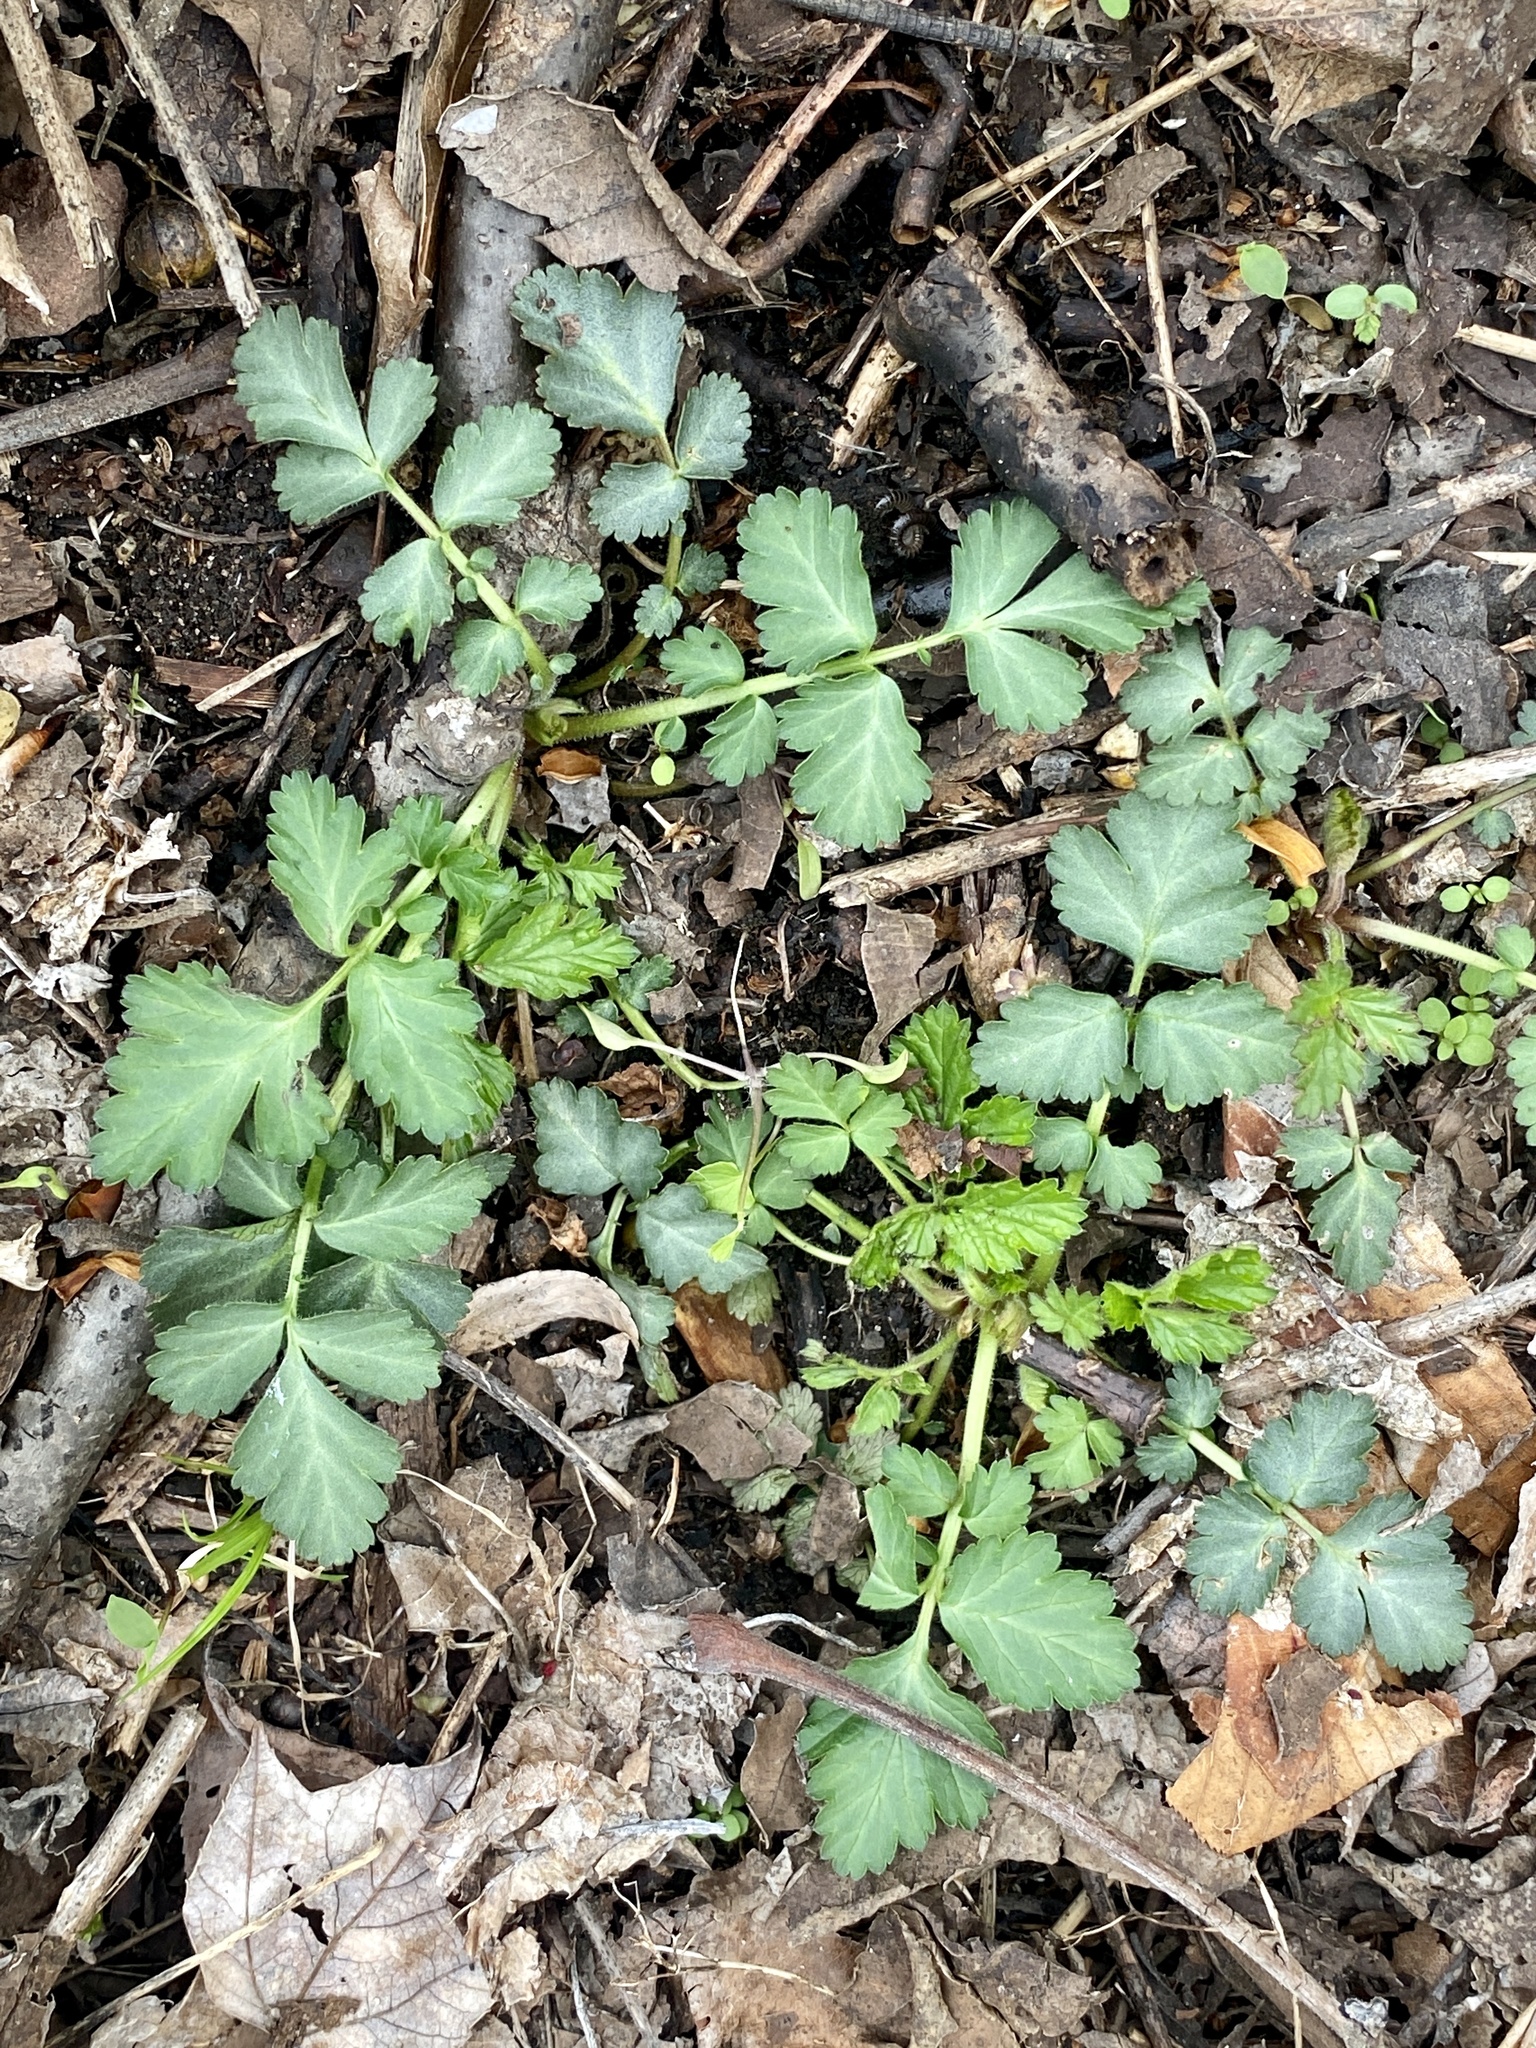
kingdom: Plantae
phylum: Tracheophyta
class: Magnoliopsida
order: Rosales
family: Rosaceae
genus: Geum
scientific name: Geum canadense
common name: White avens
